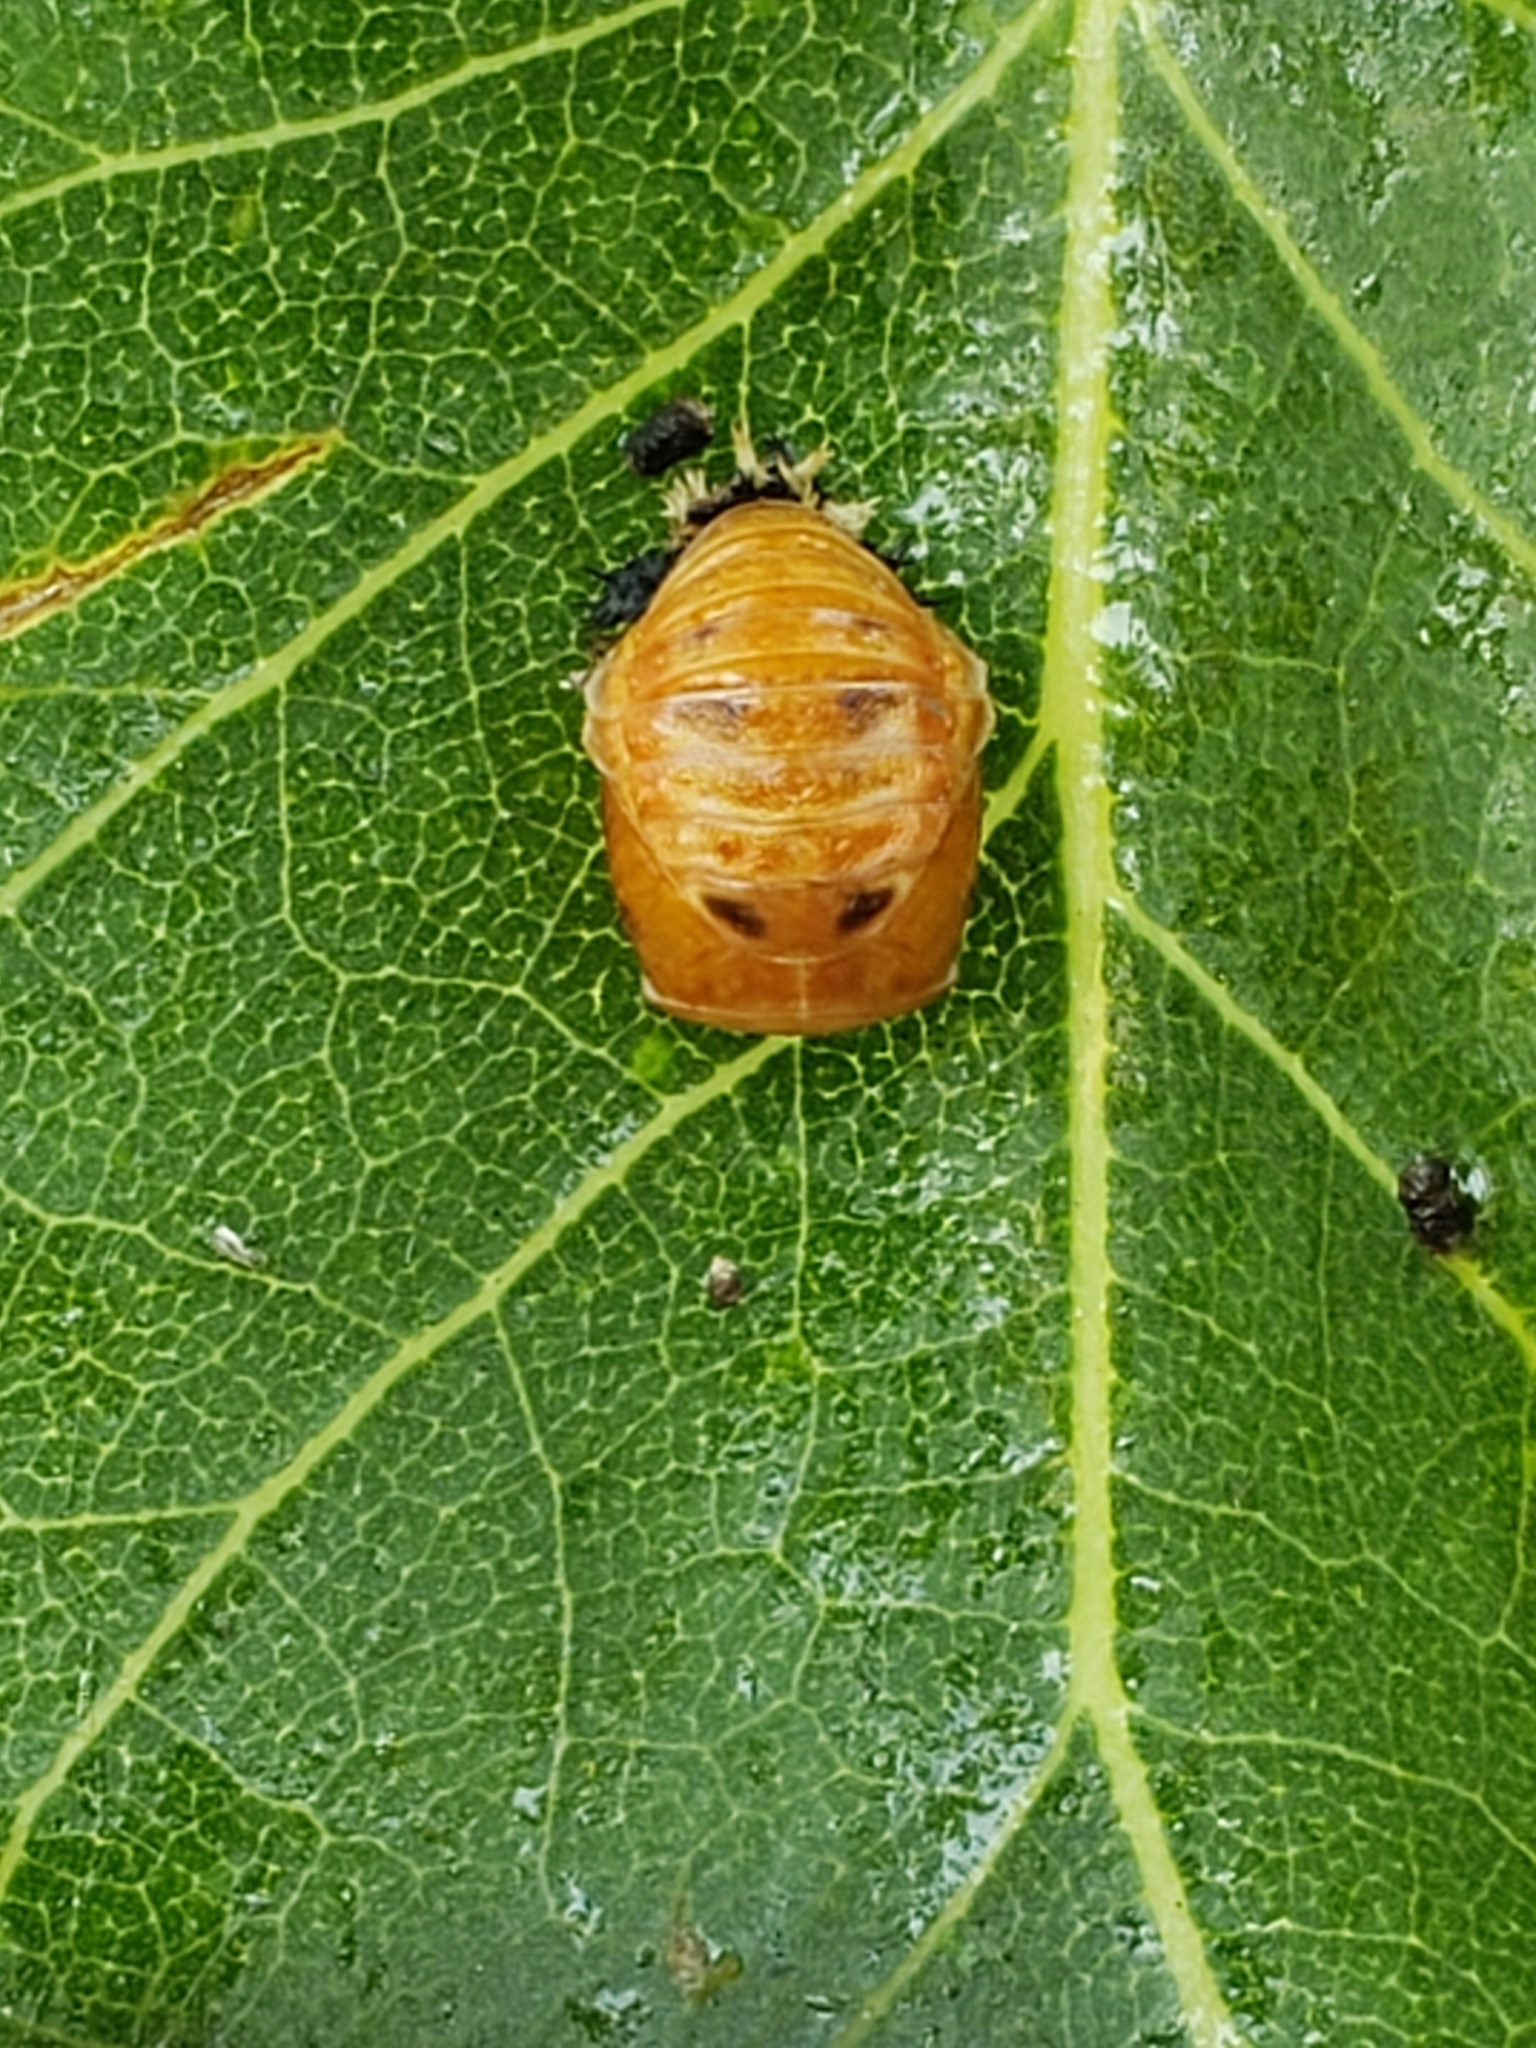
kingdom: Animalia
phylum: Arthropoda
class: Insecta
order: Coleoptera
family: Coccinellidae
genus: Harmonia
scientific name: Harmonia axyridis
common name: Harlequin ladybird
